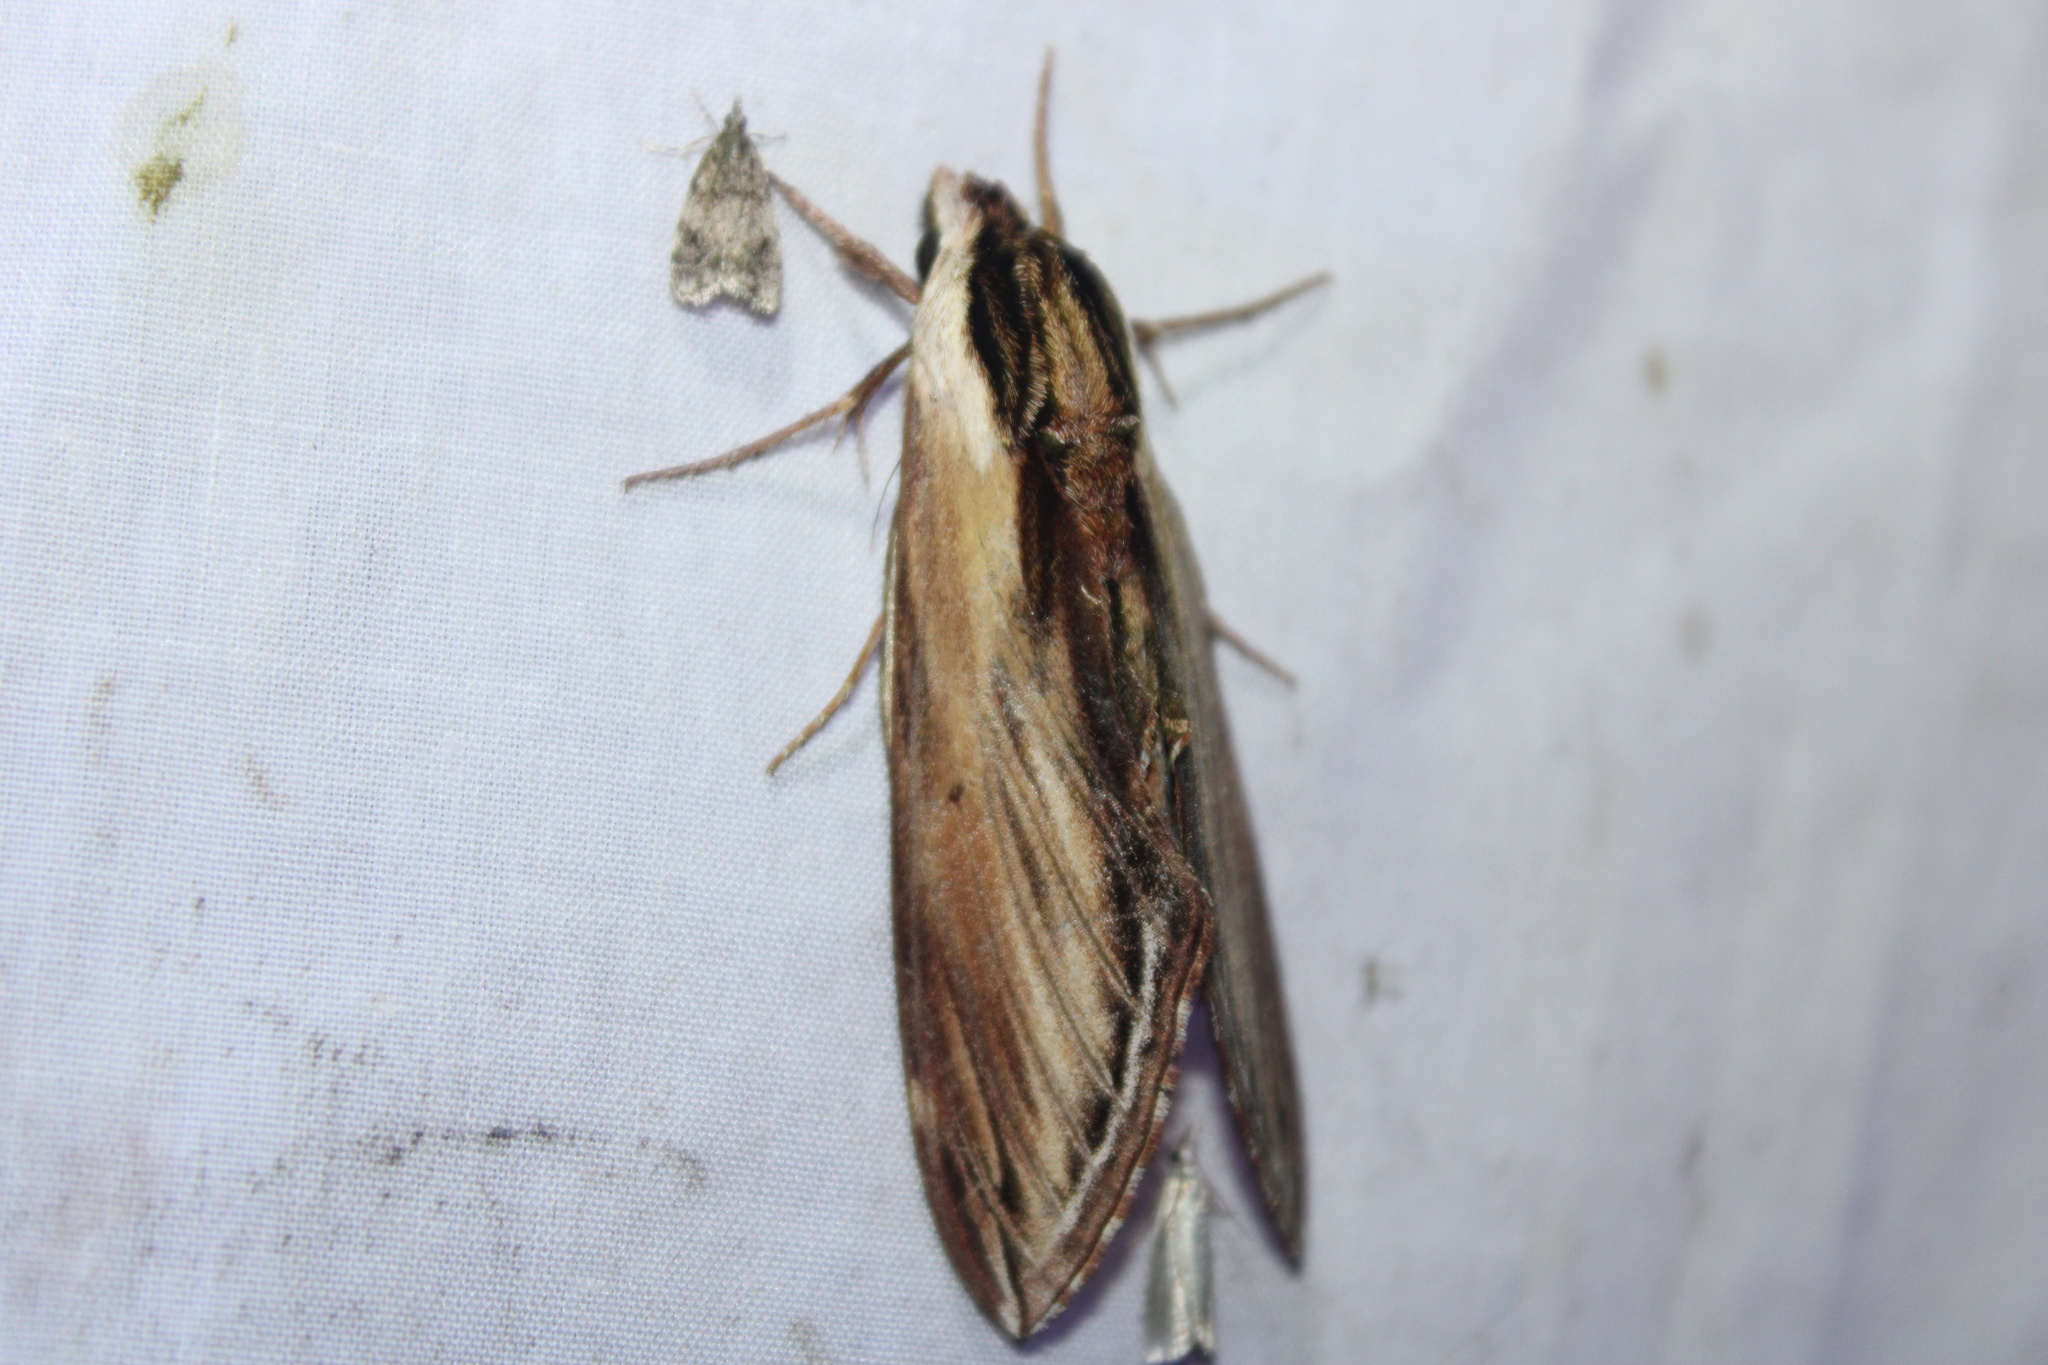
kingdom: Animalia
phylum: Arthropoda
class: Insecta
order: Lepidoptera
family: Sphingidae
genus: Sphinx
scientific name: Sphinx kalmiae
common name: Laurel sphinx
